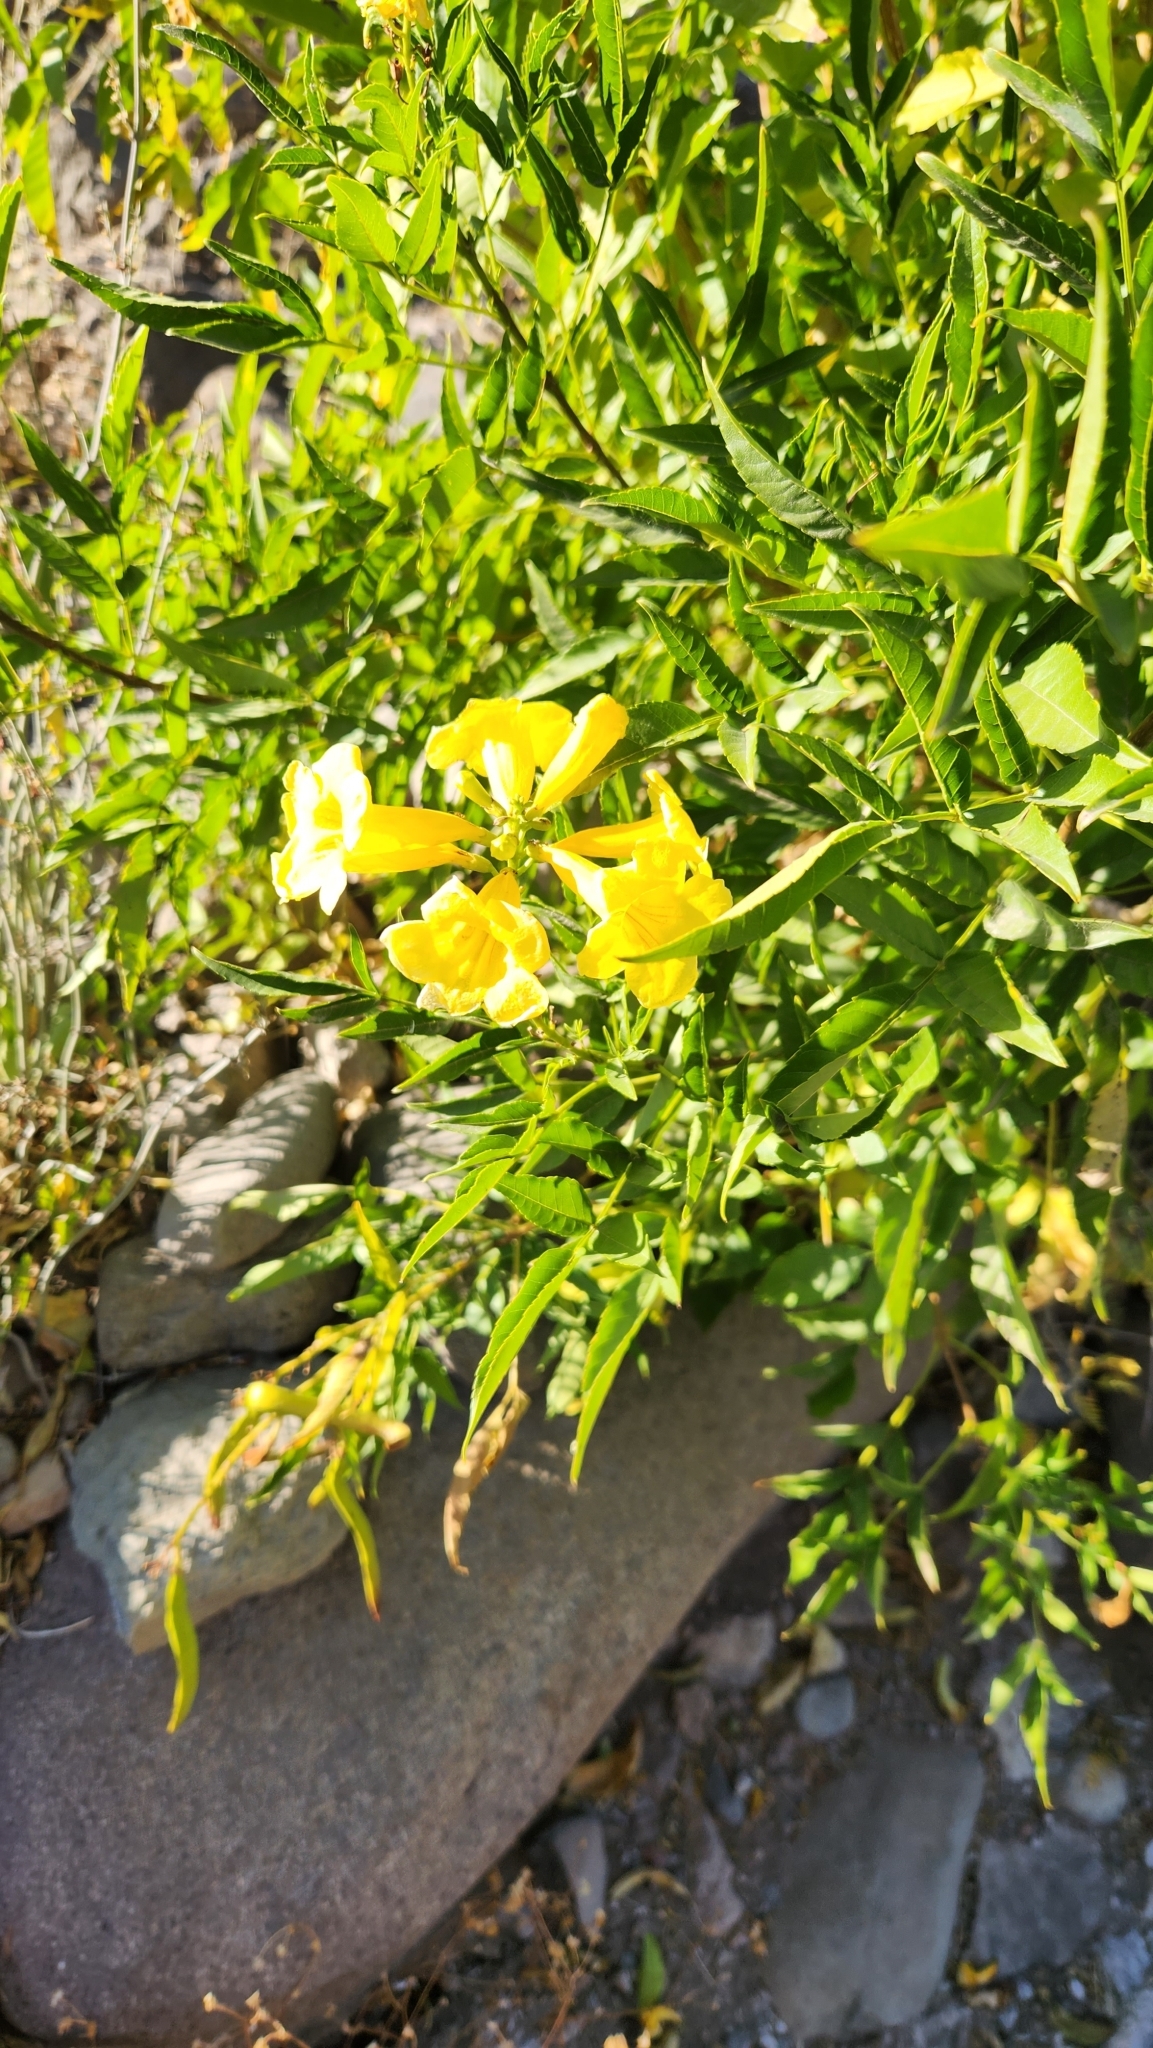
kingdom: Plantae
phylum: Tracheophyta
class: Magnoliopsida
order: Lamiales
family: Bignoniaceae
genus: Tecoma
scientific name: Tecoma stans
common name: Yellow trumpetbush
